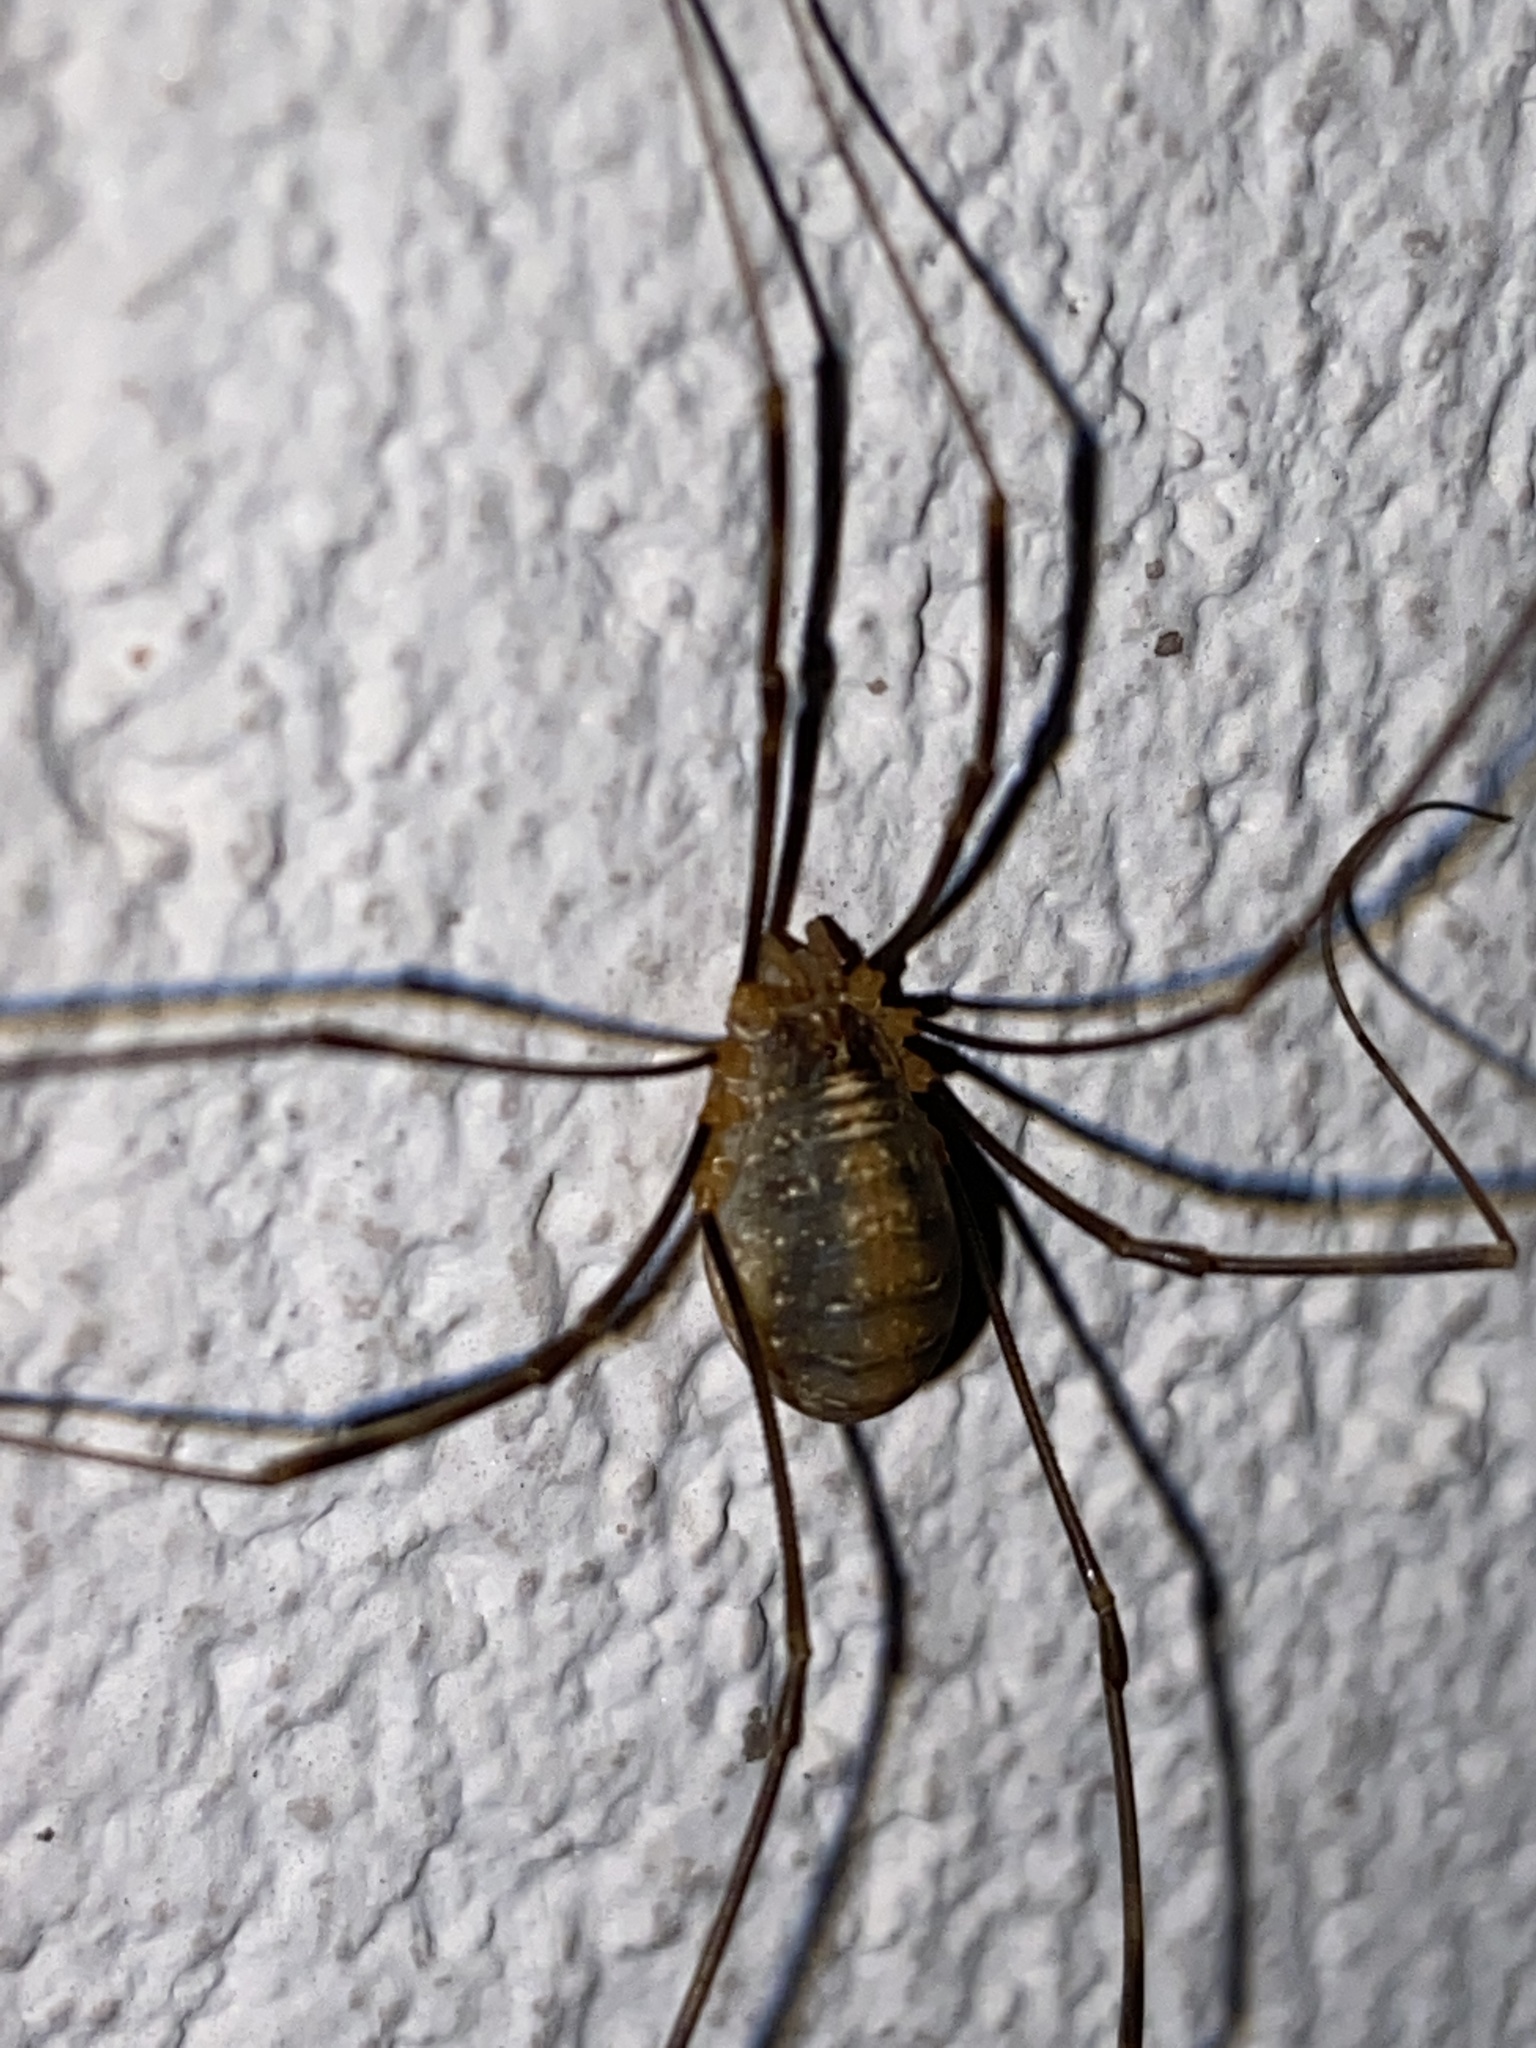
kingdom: Animalia
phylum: Arthropoda
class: Arachnida
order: Opiliones
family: Phalangiidae
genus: Opilio
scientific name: Opilio canestrinii
